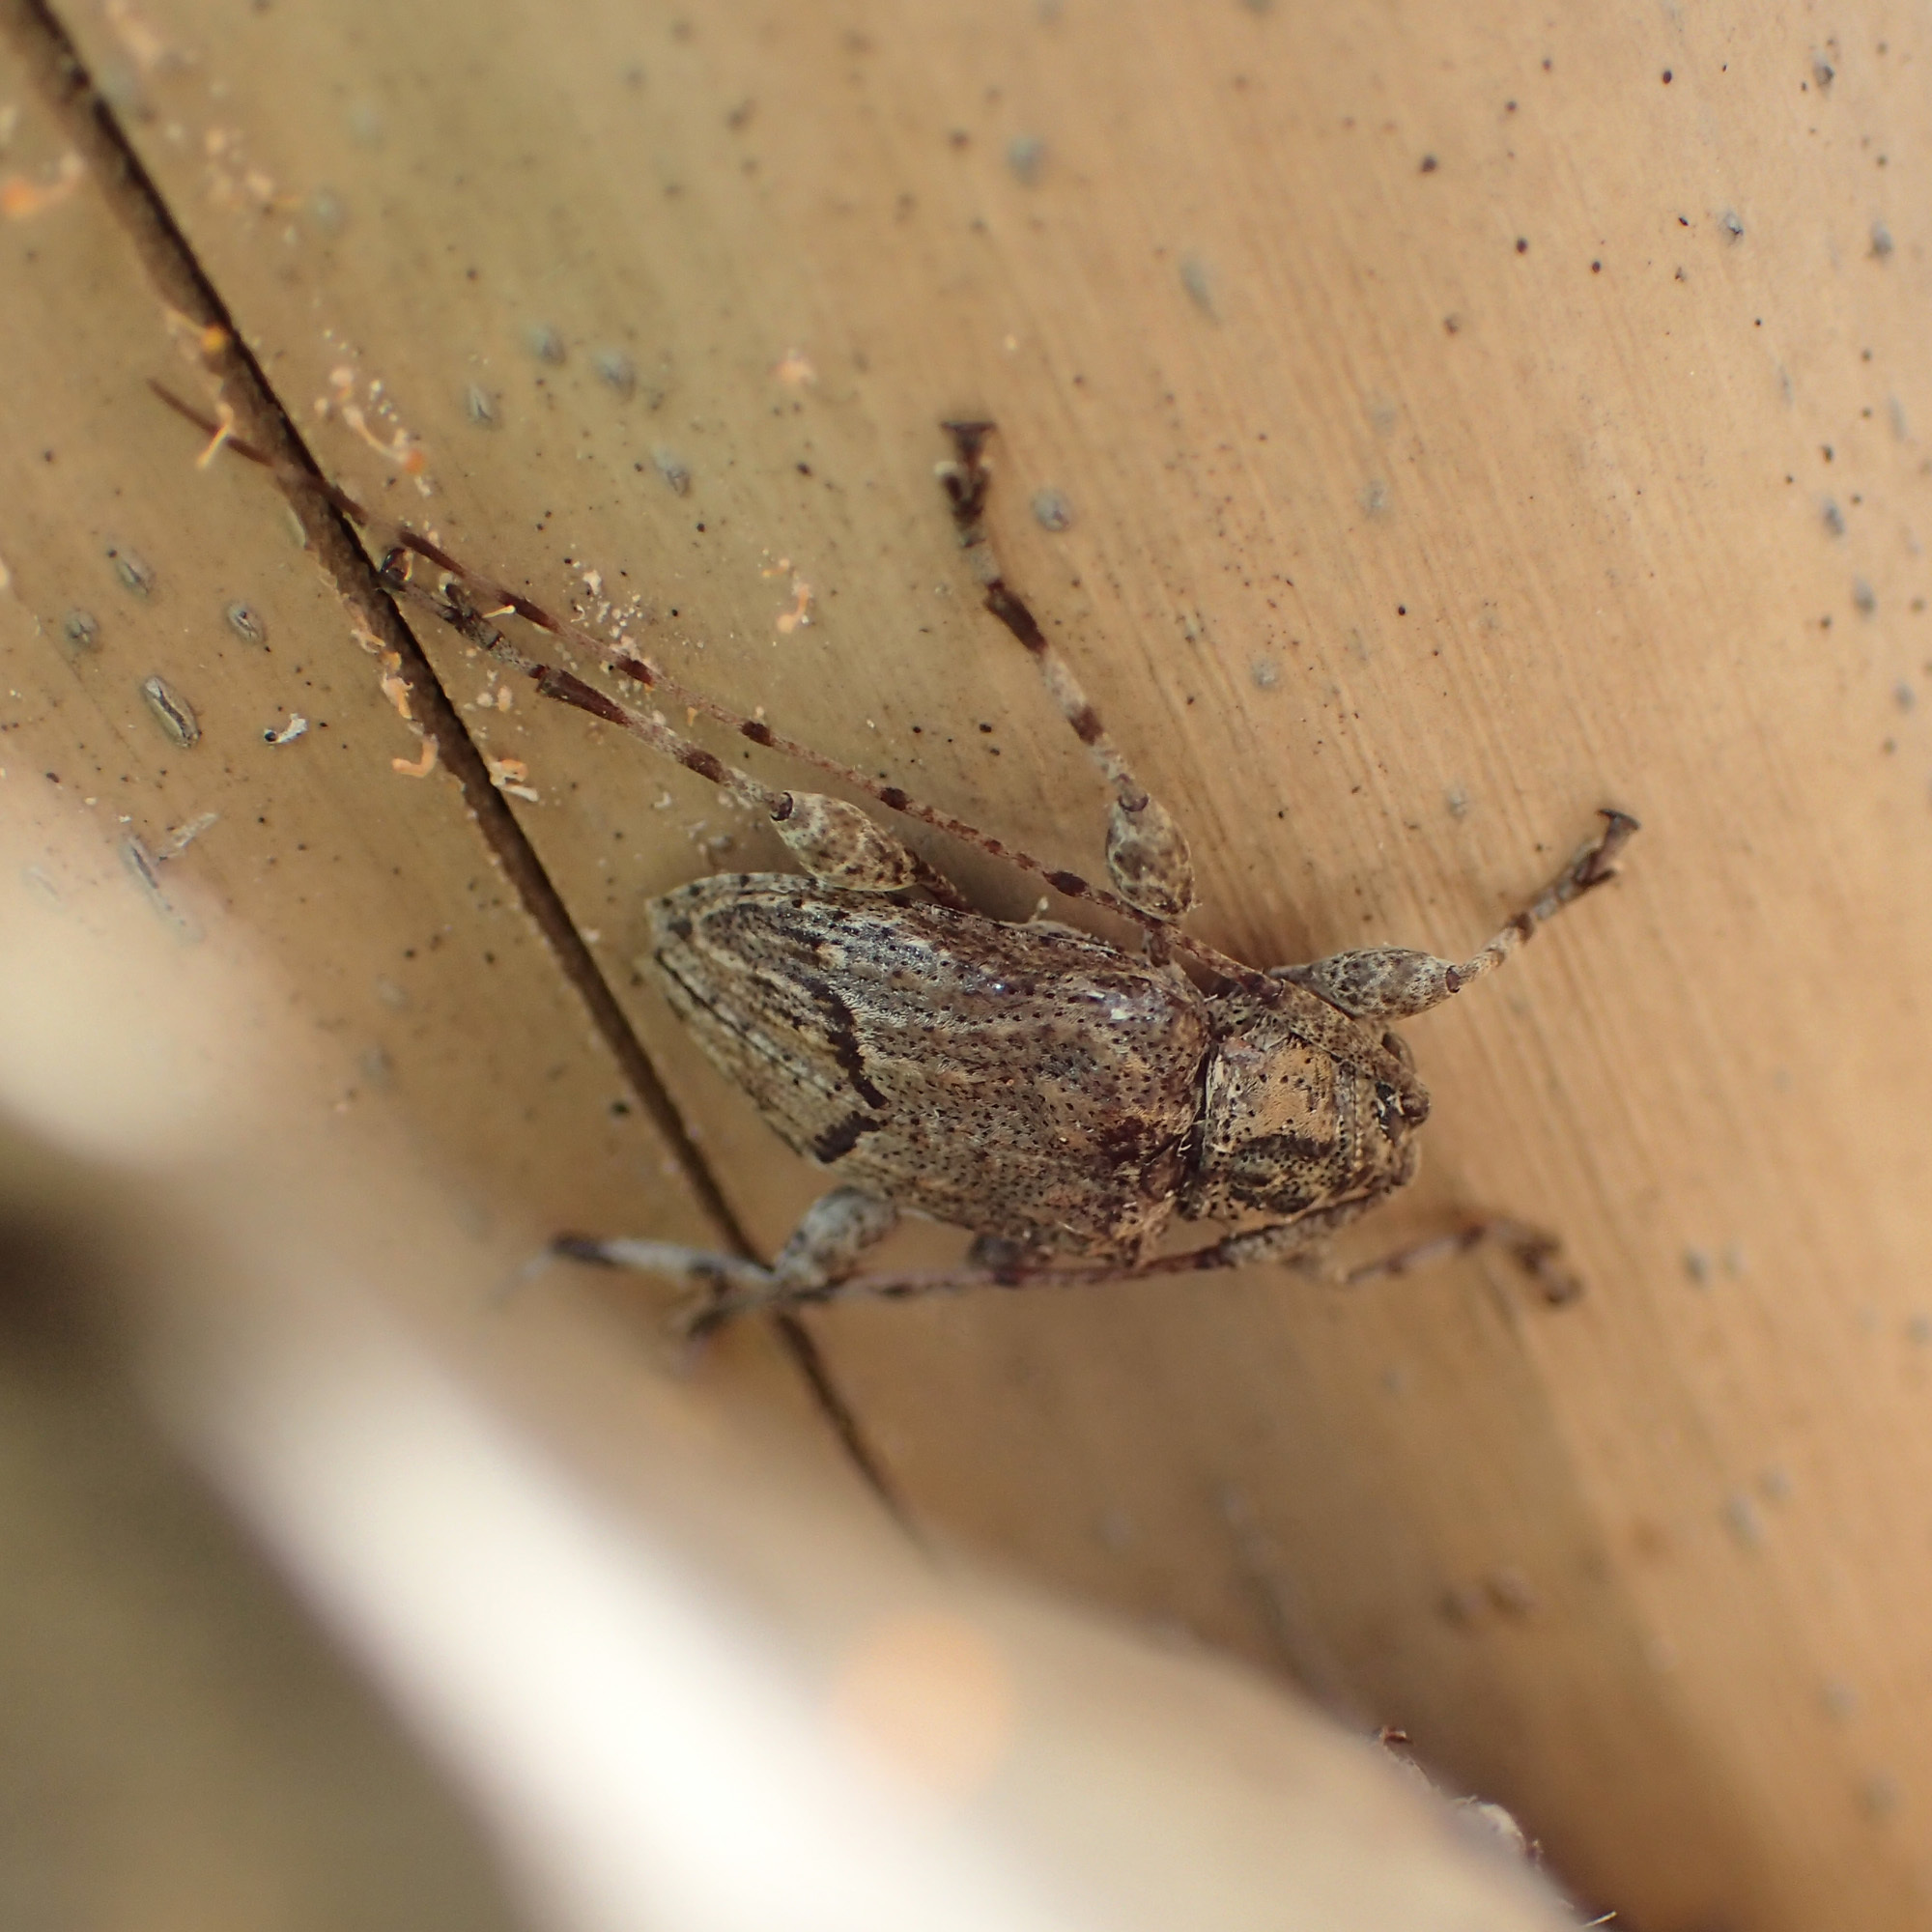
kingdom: Animalia
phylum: Arthropoda
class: Insecta
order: Coleoptera
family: Cerambycidae
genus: Leptostylopsis
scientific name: Leptostylopsis jamaicensis
